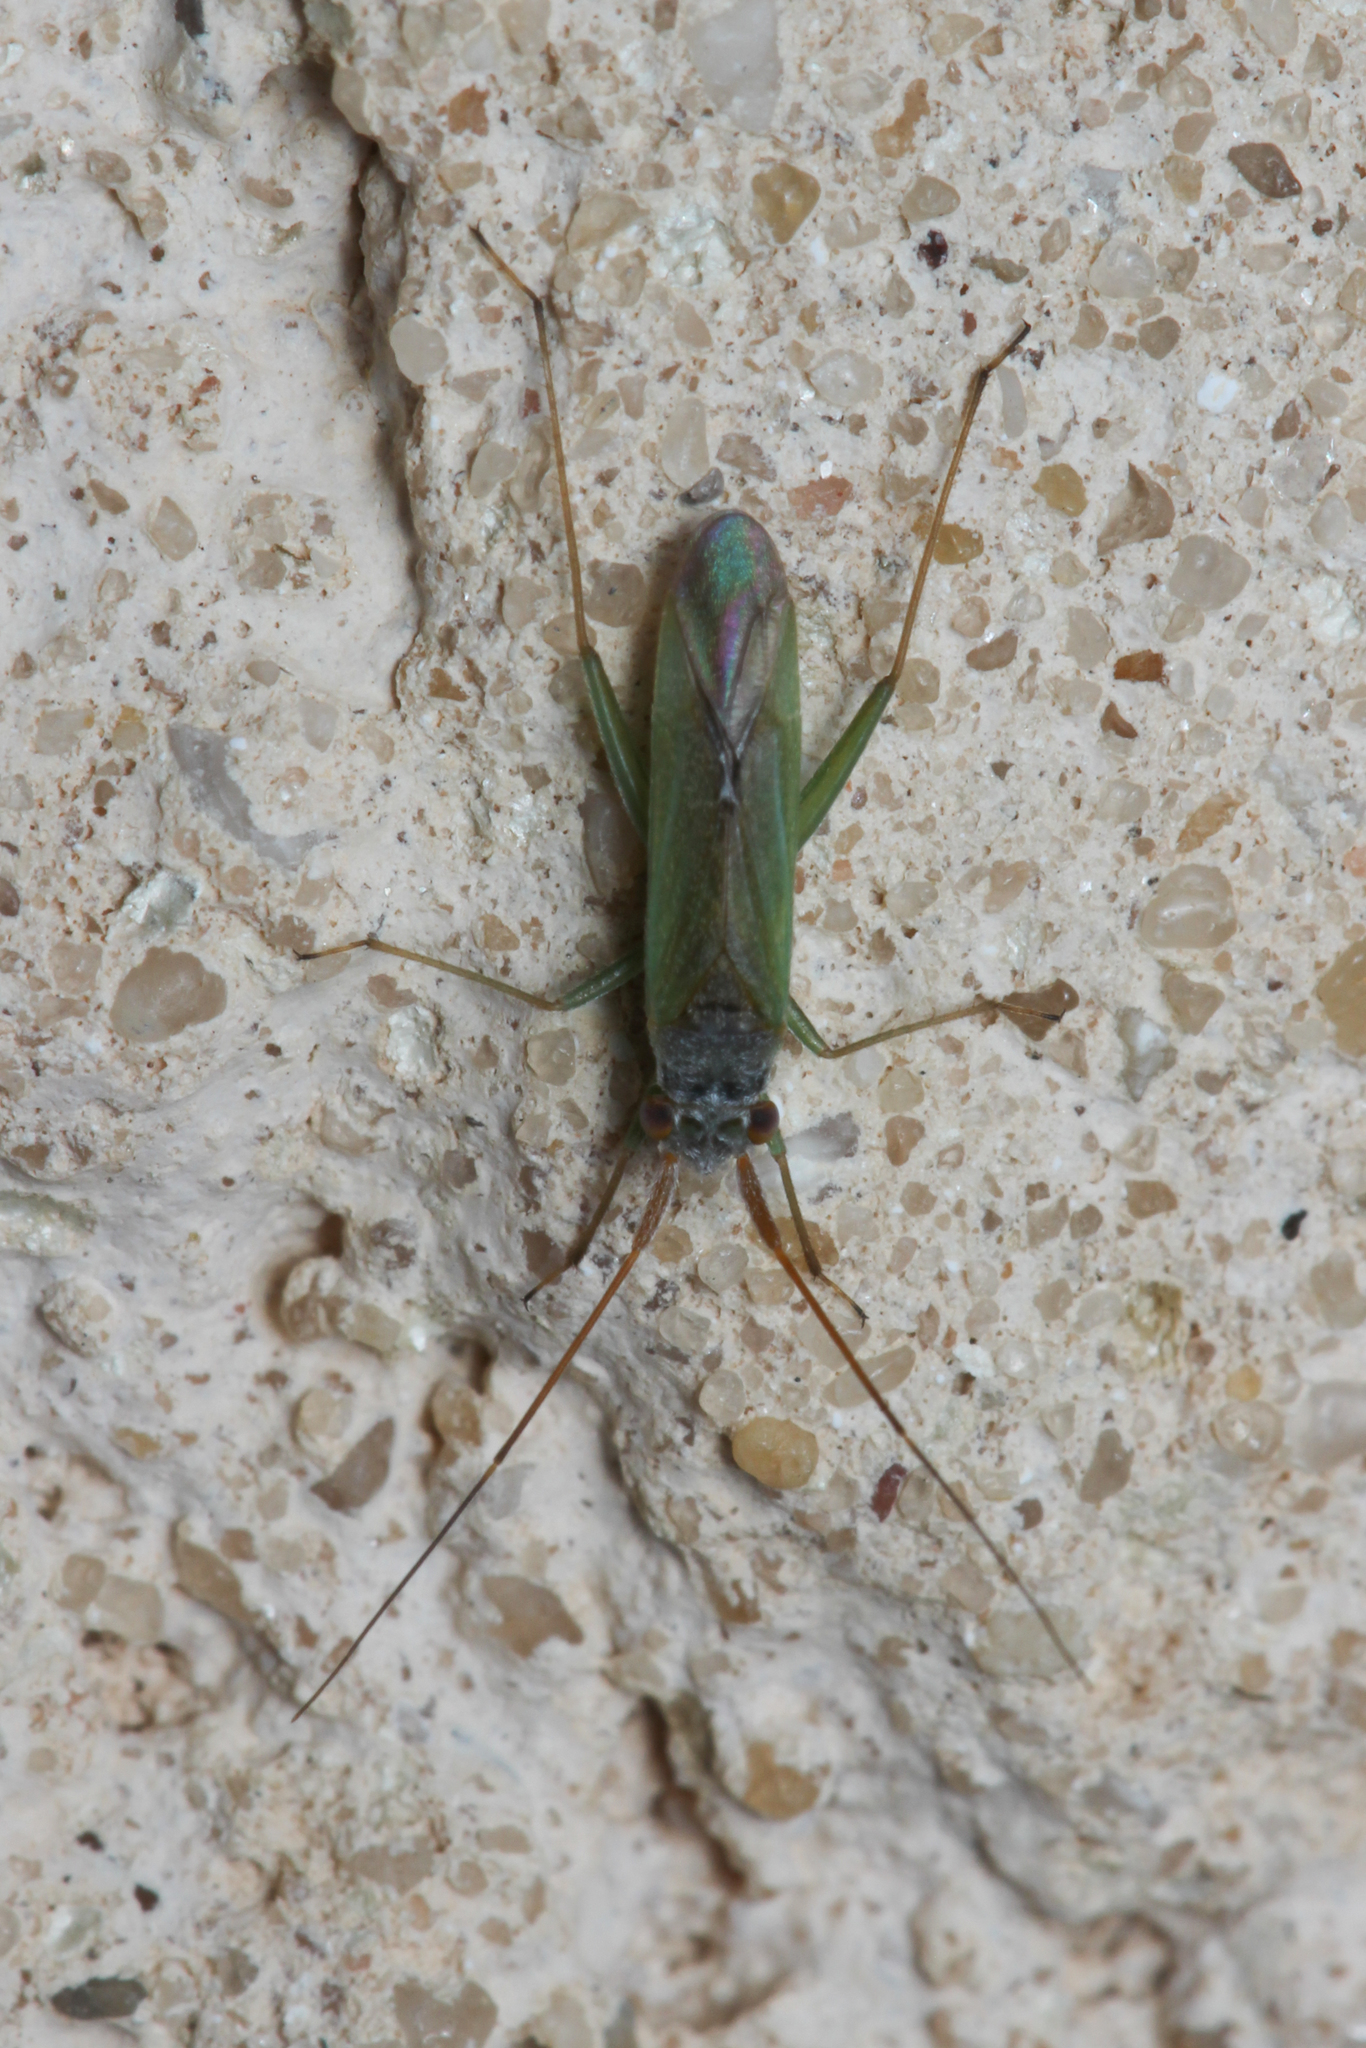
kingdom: Animalia
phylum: Arthropoda
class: Insecta
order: Hemiptera
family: Miridae
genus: Platycranus
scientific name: Platycranus erberi
